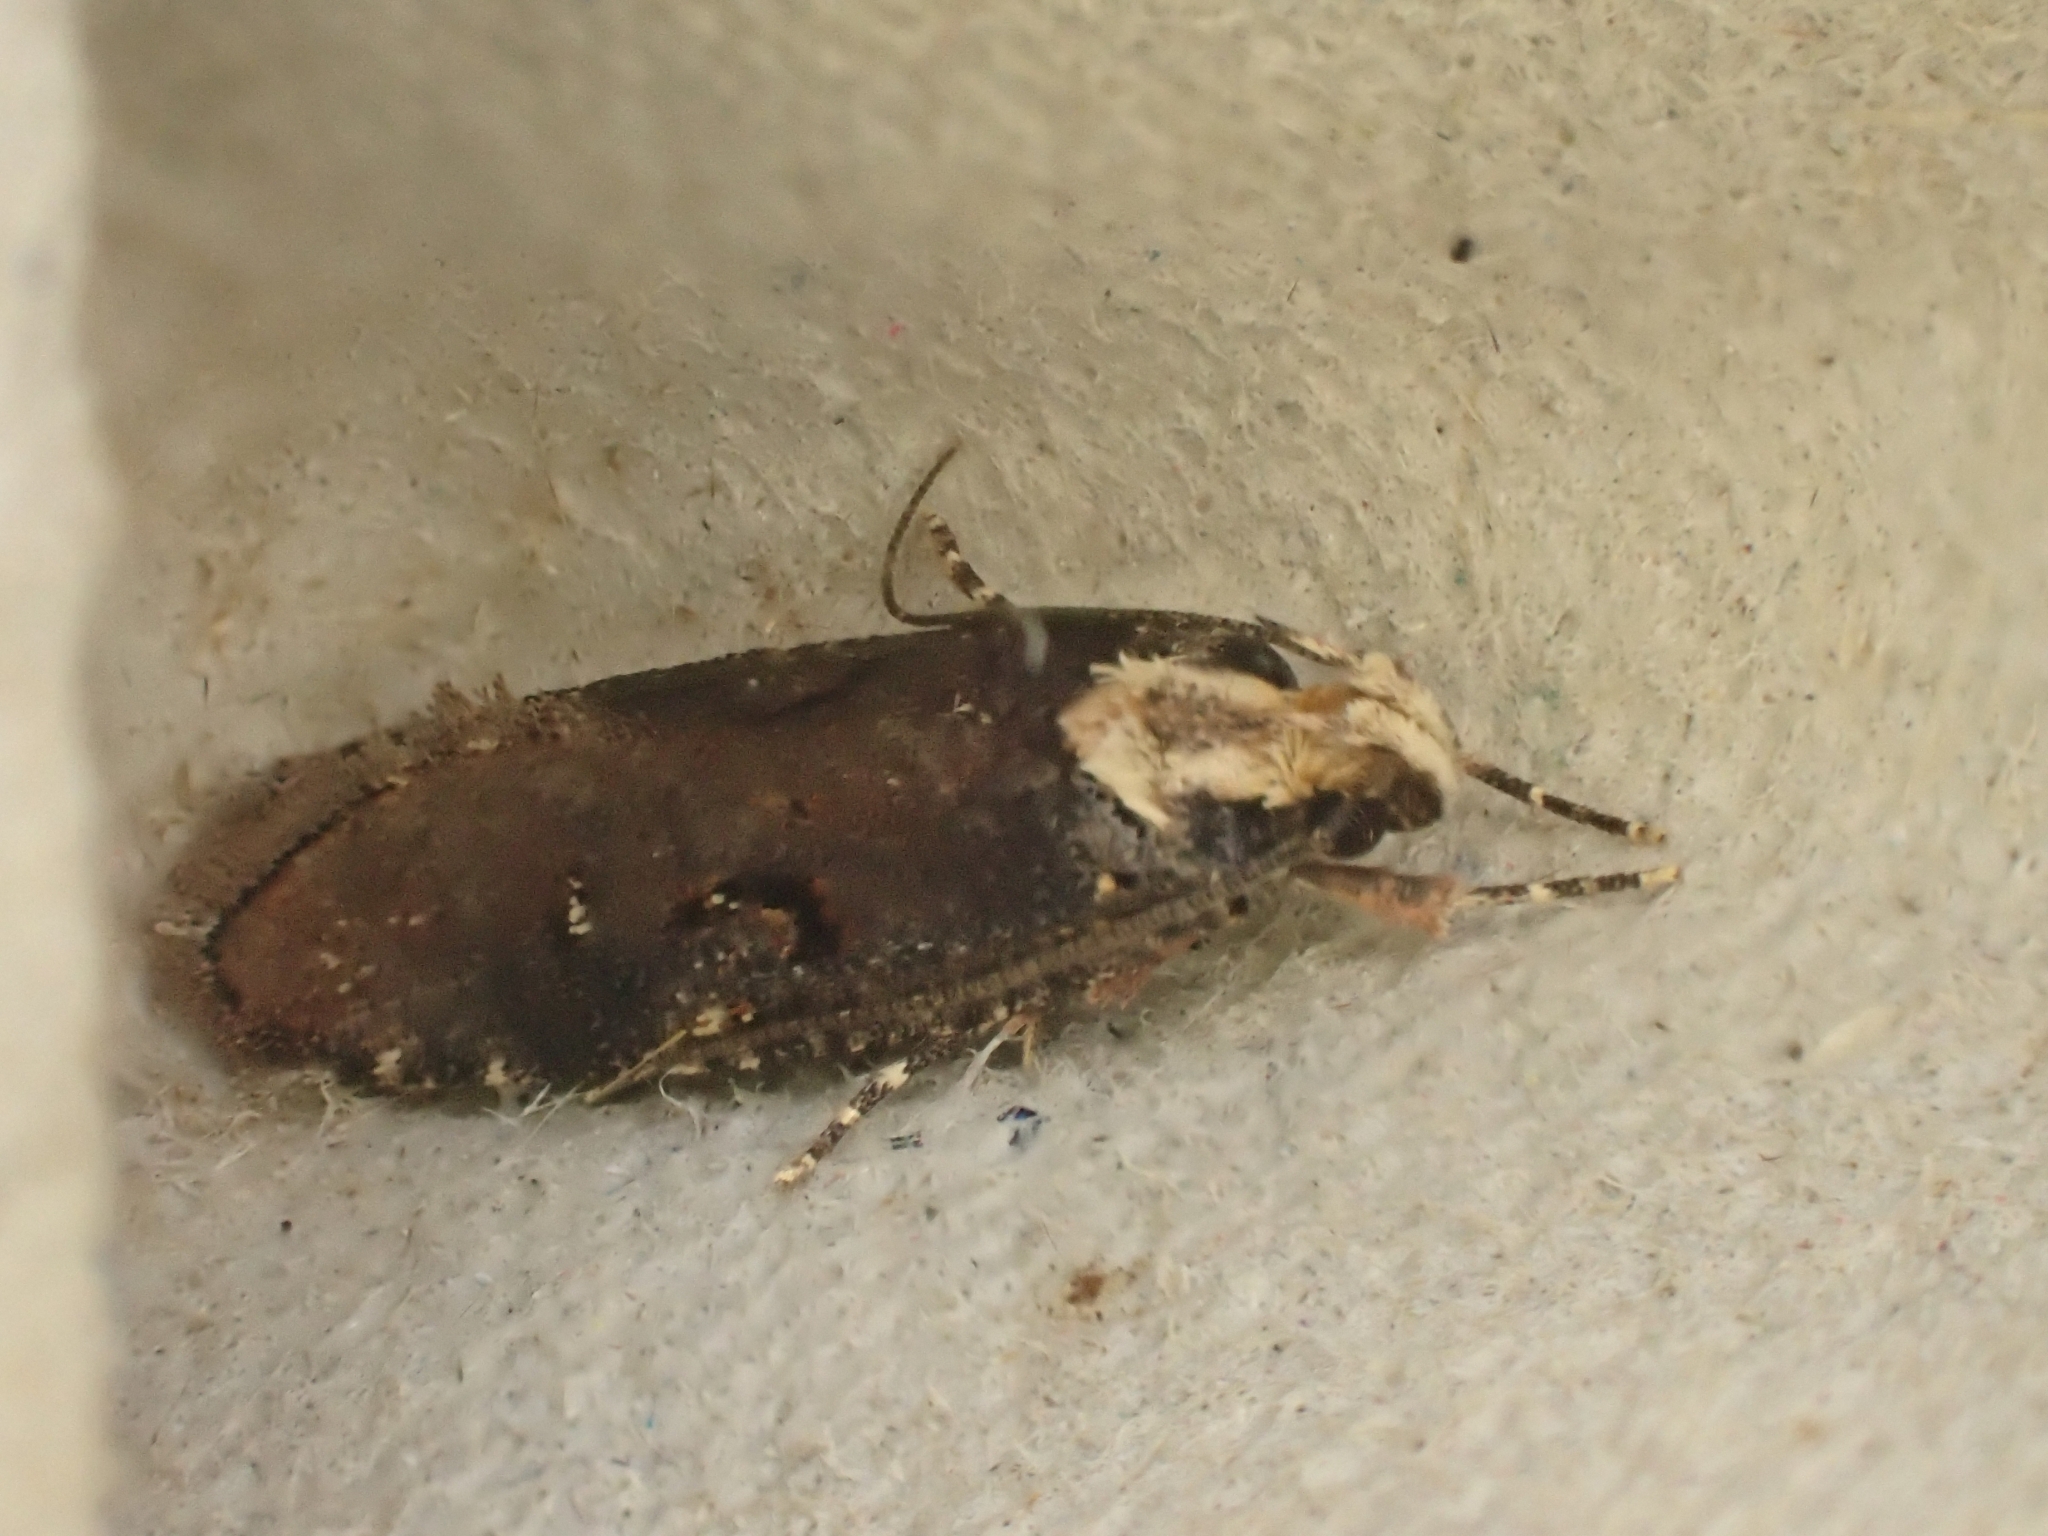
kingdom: Animalia
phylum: Arthropoda
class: Insecta
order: Lepidoptera
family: Depressariidae
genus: Agonopterix
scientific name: Agonopterix liturosa
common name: Large purple flat-body
